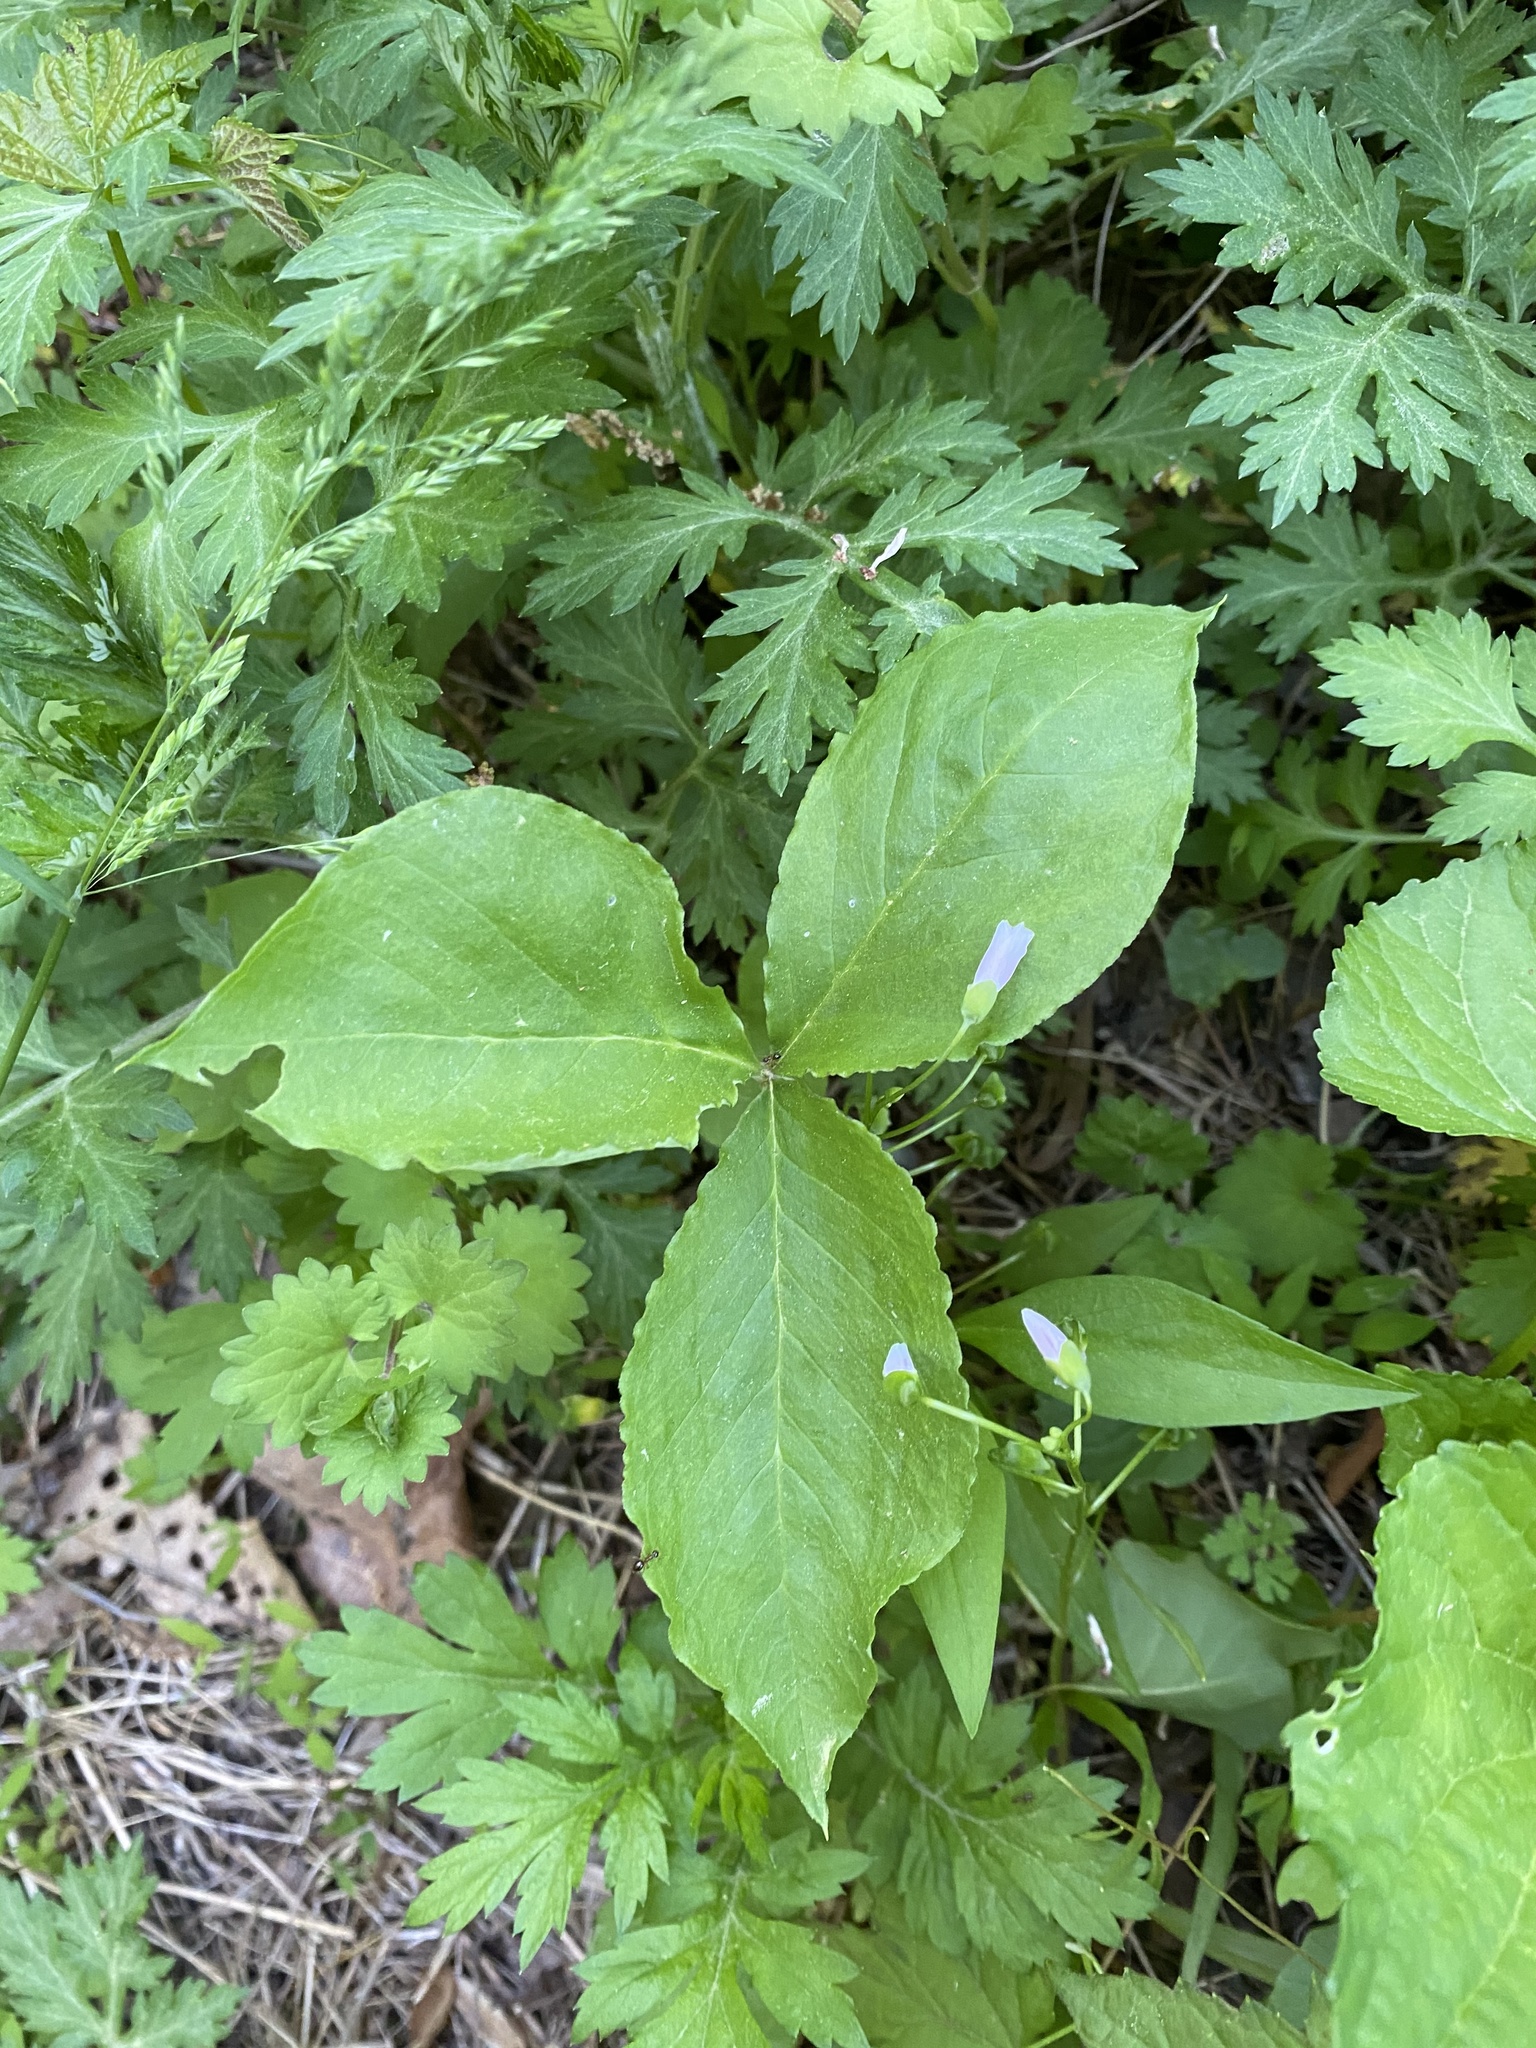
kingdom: Plantae
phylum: Tracheophyta
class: Liliopsida
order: Alismatales
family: Araceae
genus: Arisaema
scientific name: Arisaema triphyllum
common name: Jack-in-the-pulpit
